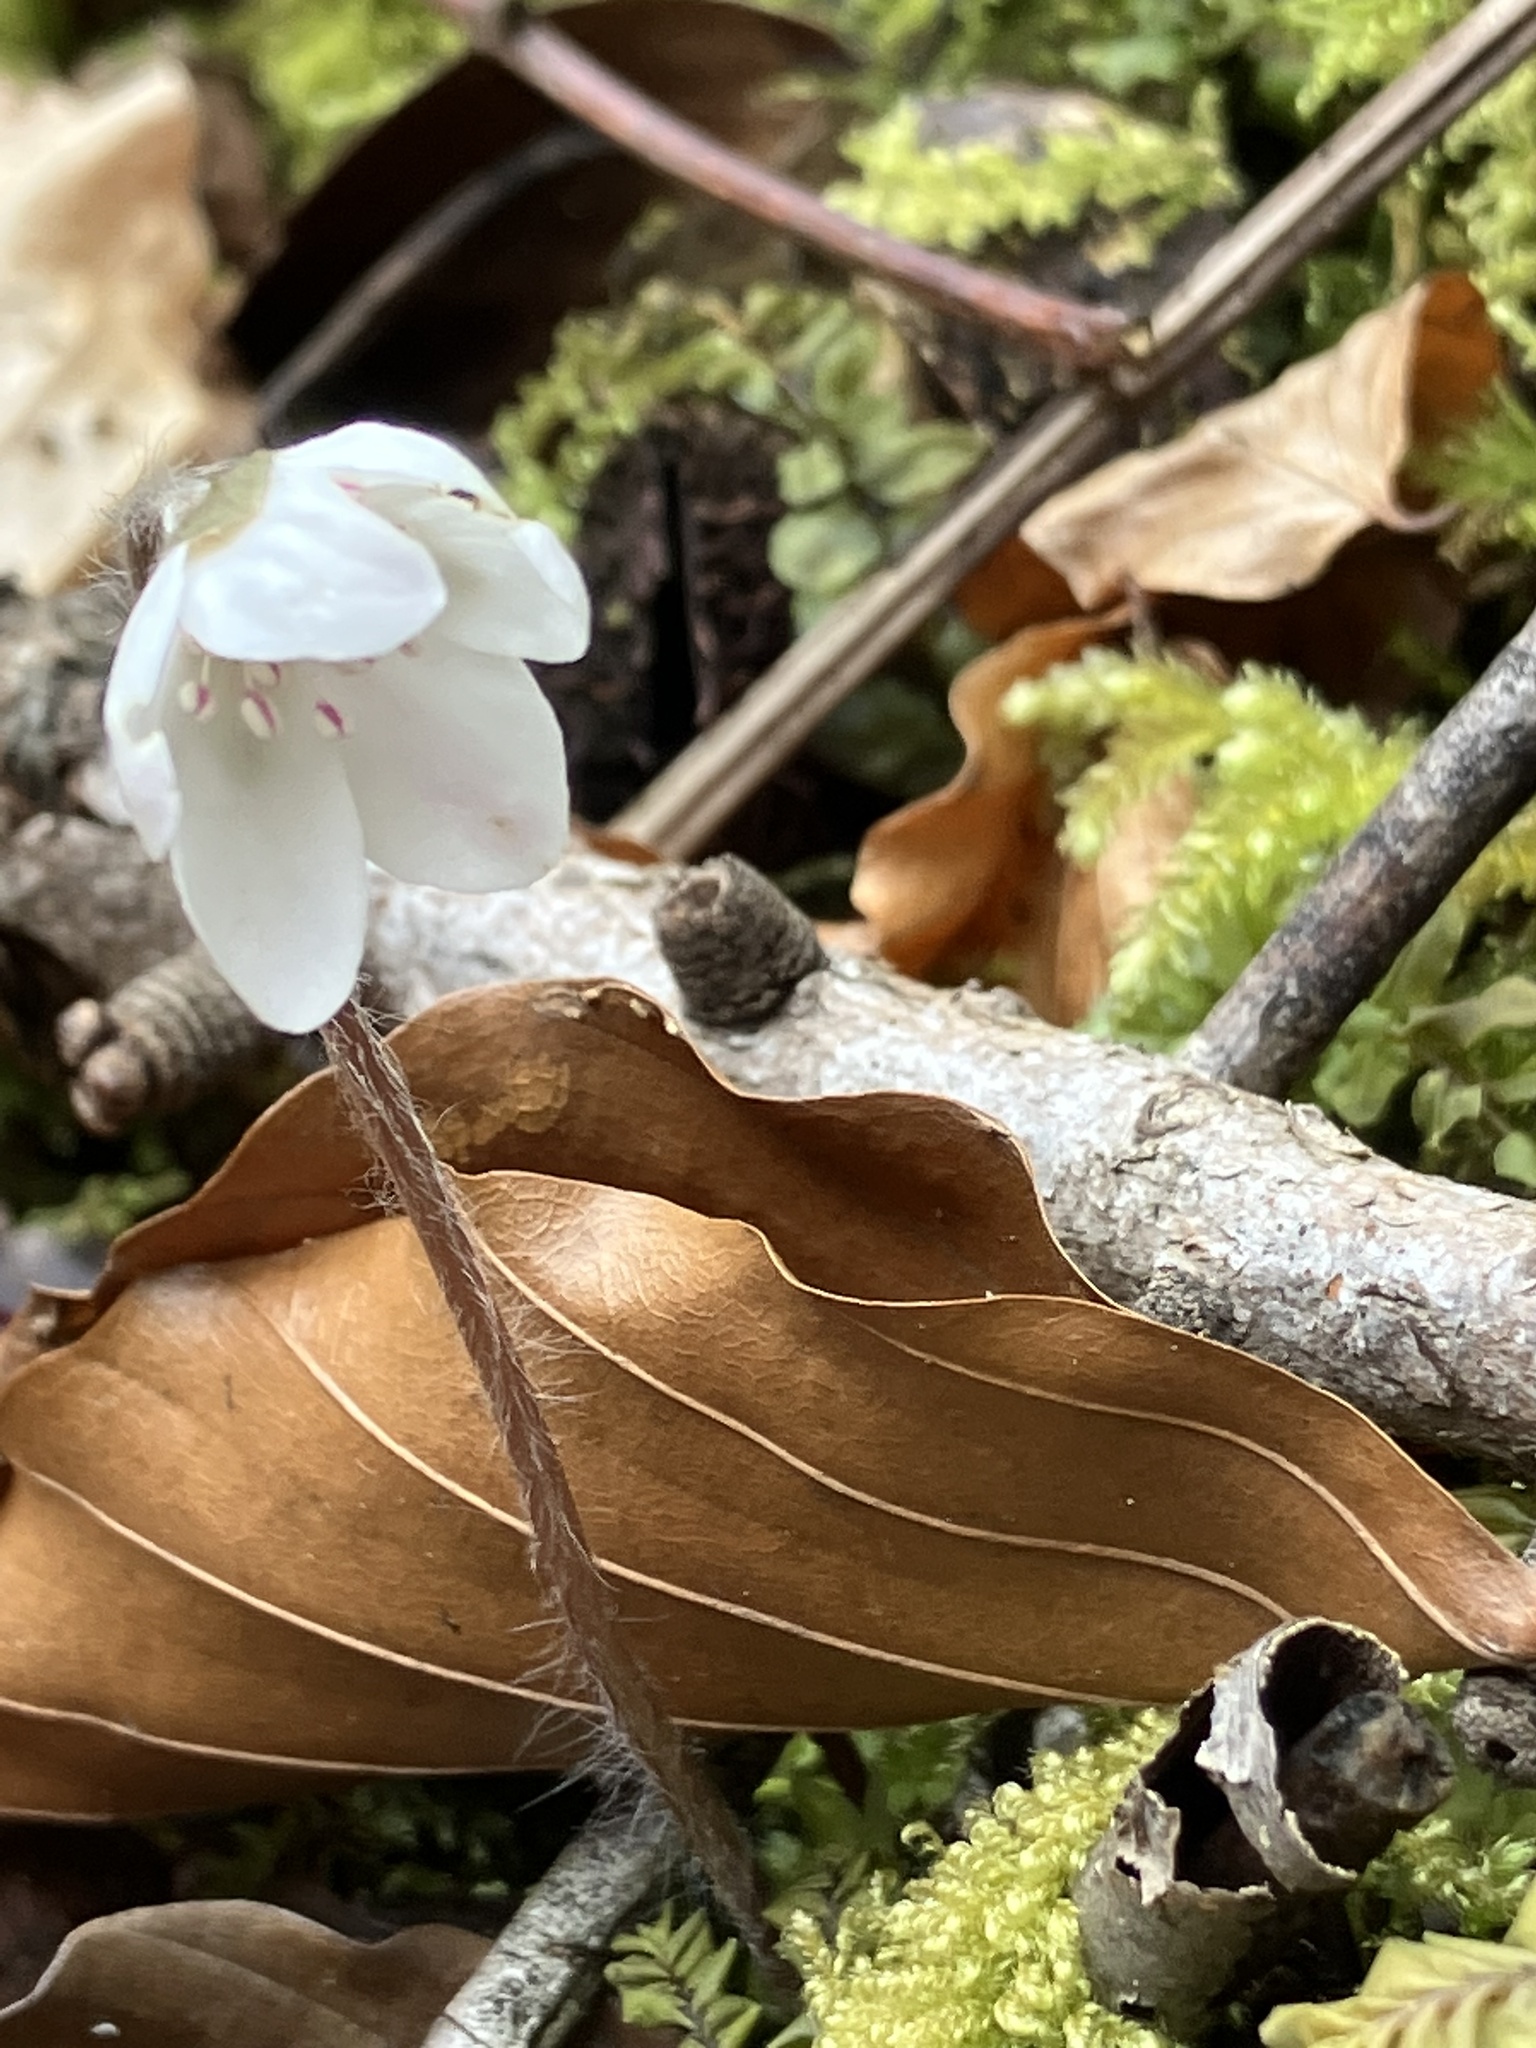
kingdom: Plantae
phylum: Tracheophyta
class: Magnoliopsida
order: Ranunculales
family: Ranunculaceae
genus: Hepatica
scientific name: Hepatica nobilis
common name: Liverleaf
